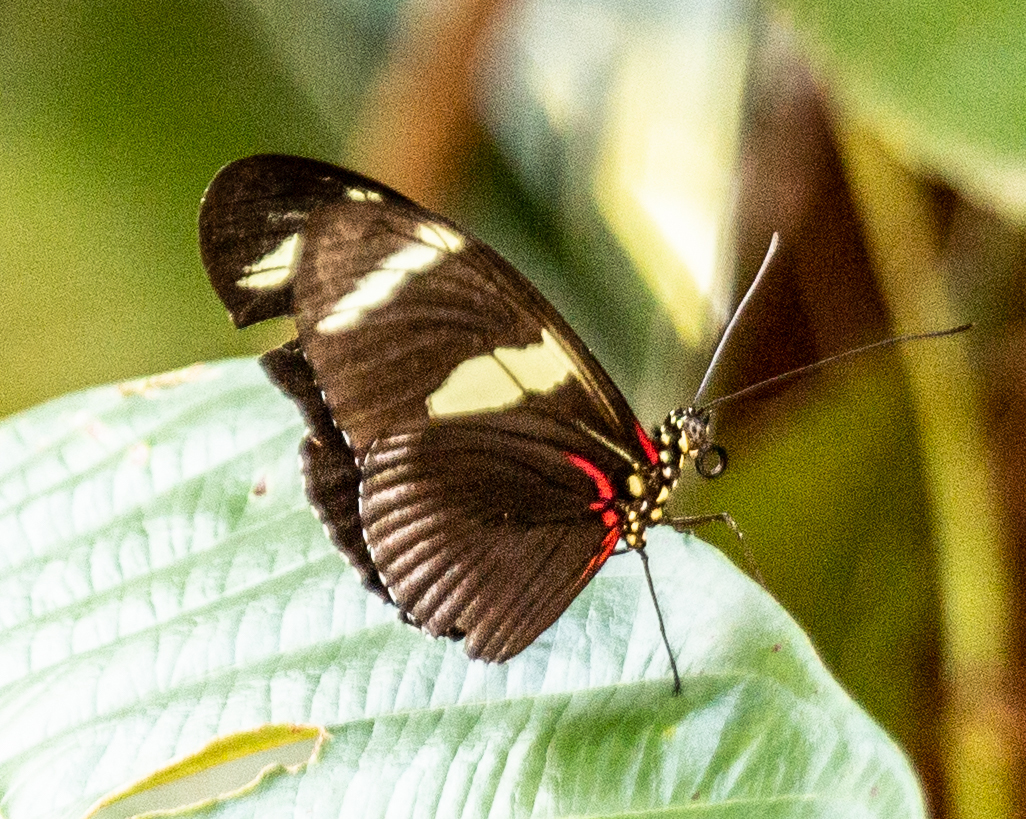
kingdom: Animalia
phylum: Arthropoda
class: Insecta
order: Lepidoptera
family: Nymphalidae
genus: Heliconius
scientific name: Heliconius wallacei
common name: Wallace's longwing
